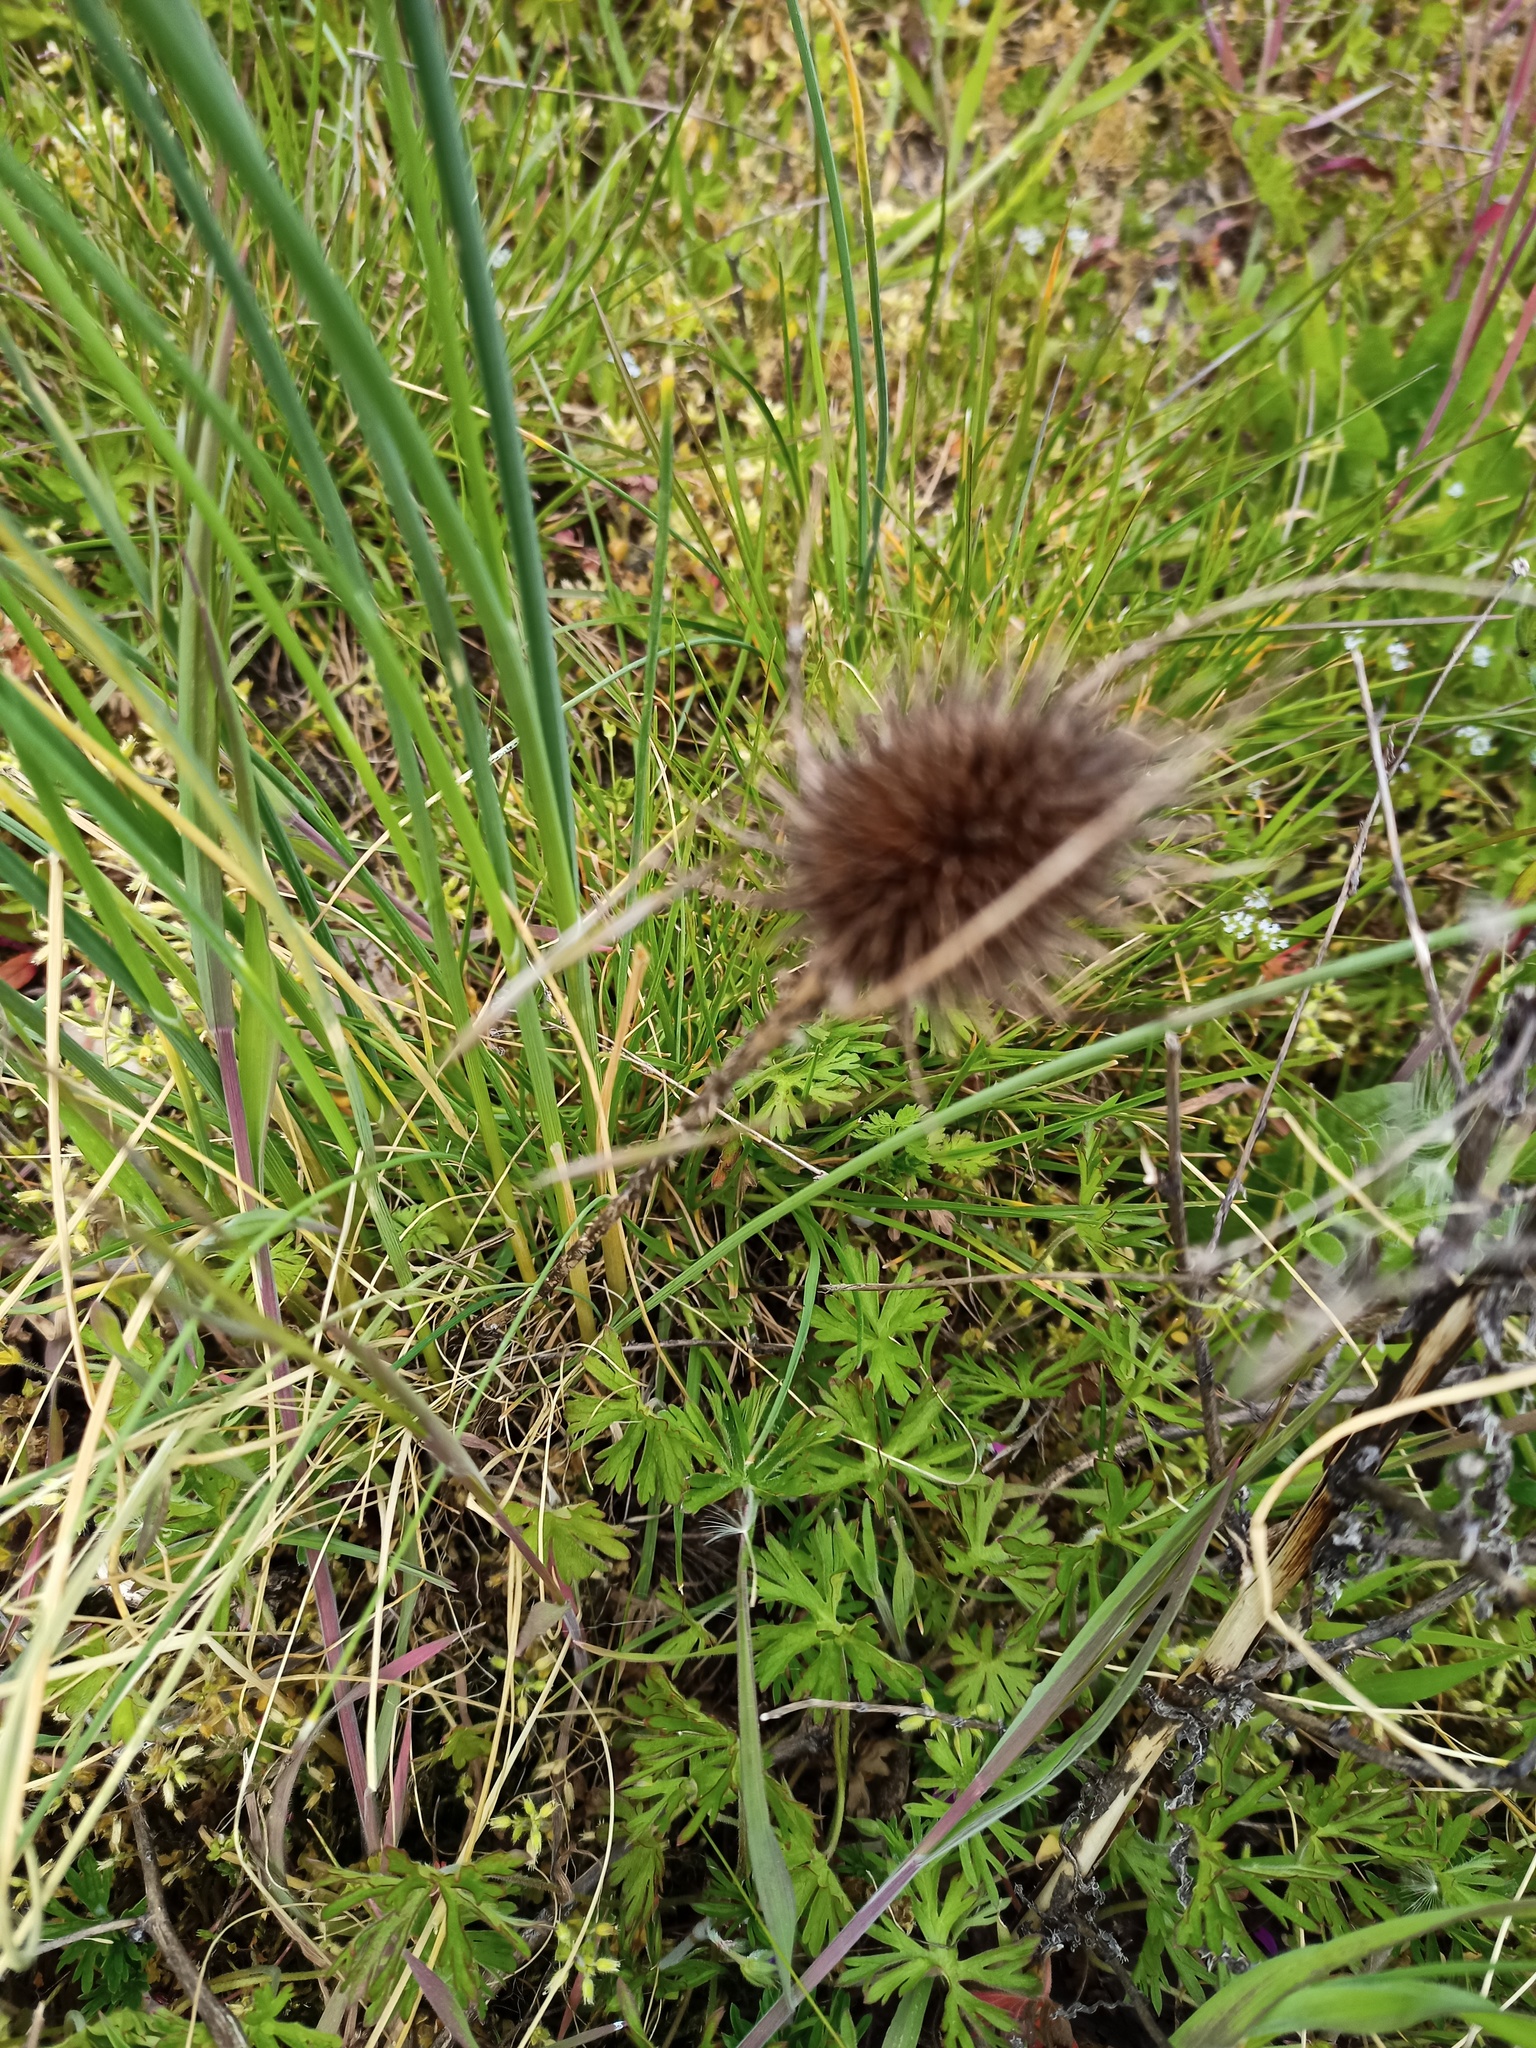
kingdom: Plantae
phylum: Tracheophyta
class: Magnoliopsida
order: Dipsacales
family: Caprifoliaceae
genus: Dipsacus
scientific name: Dipsacus fullonum
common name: Teasel
